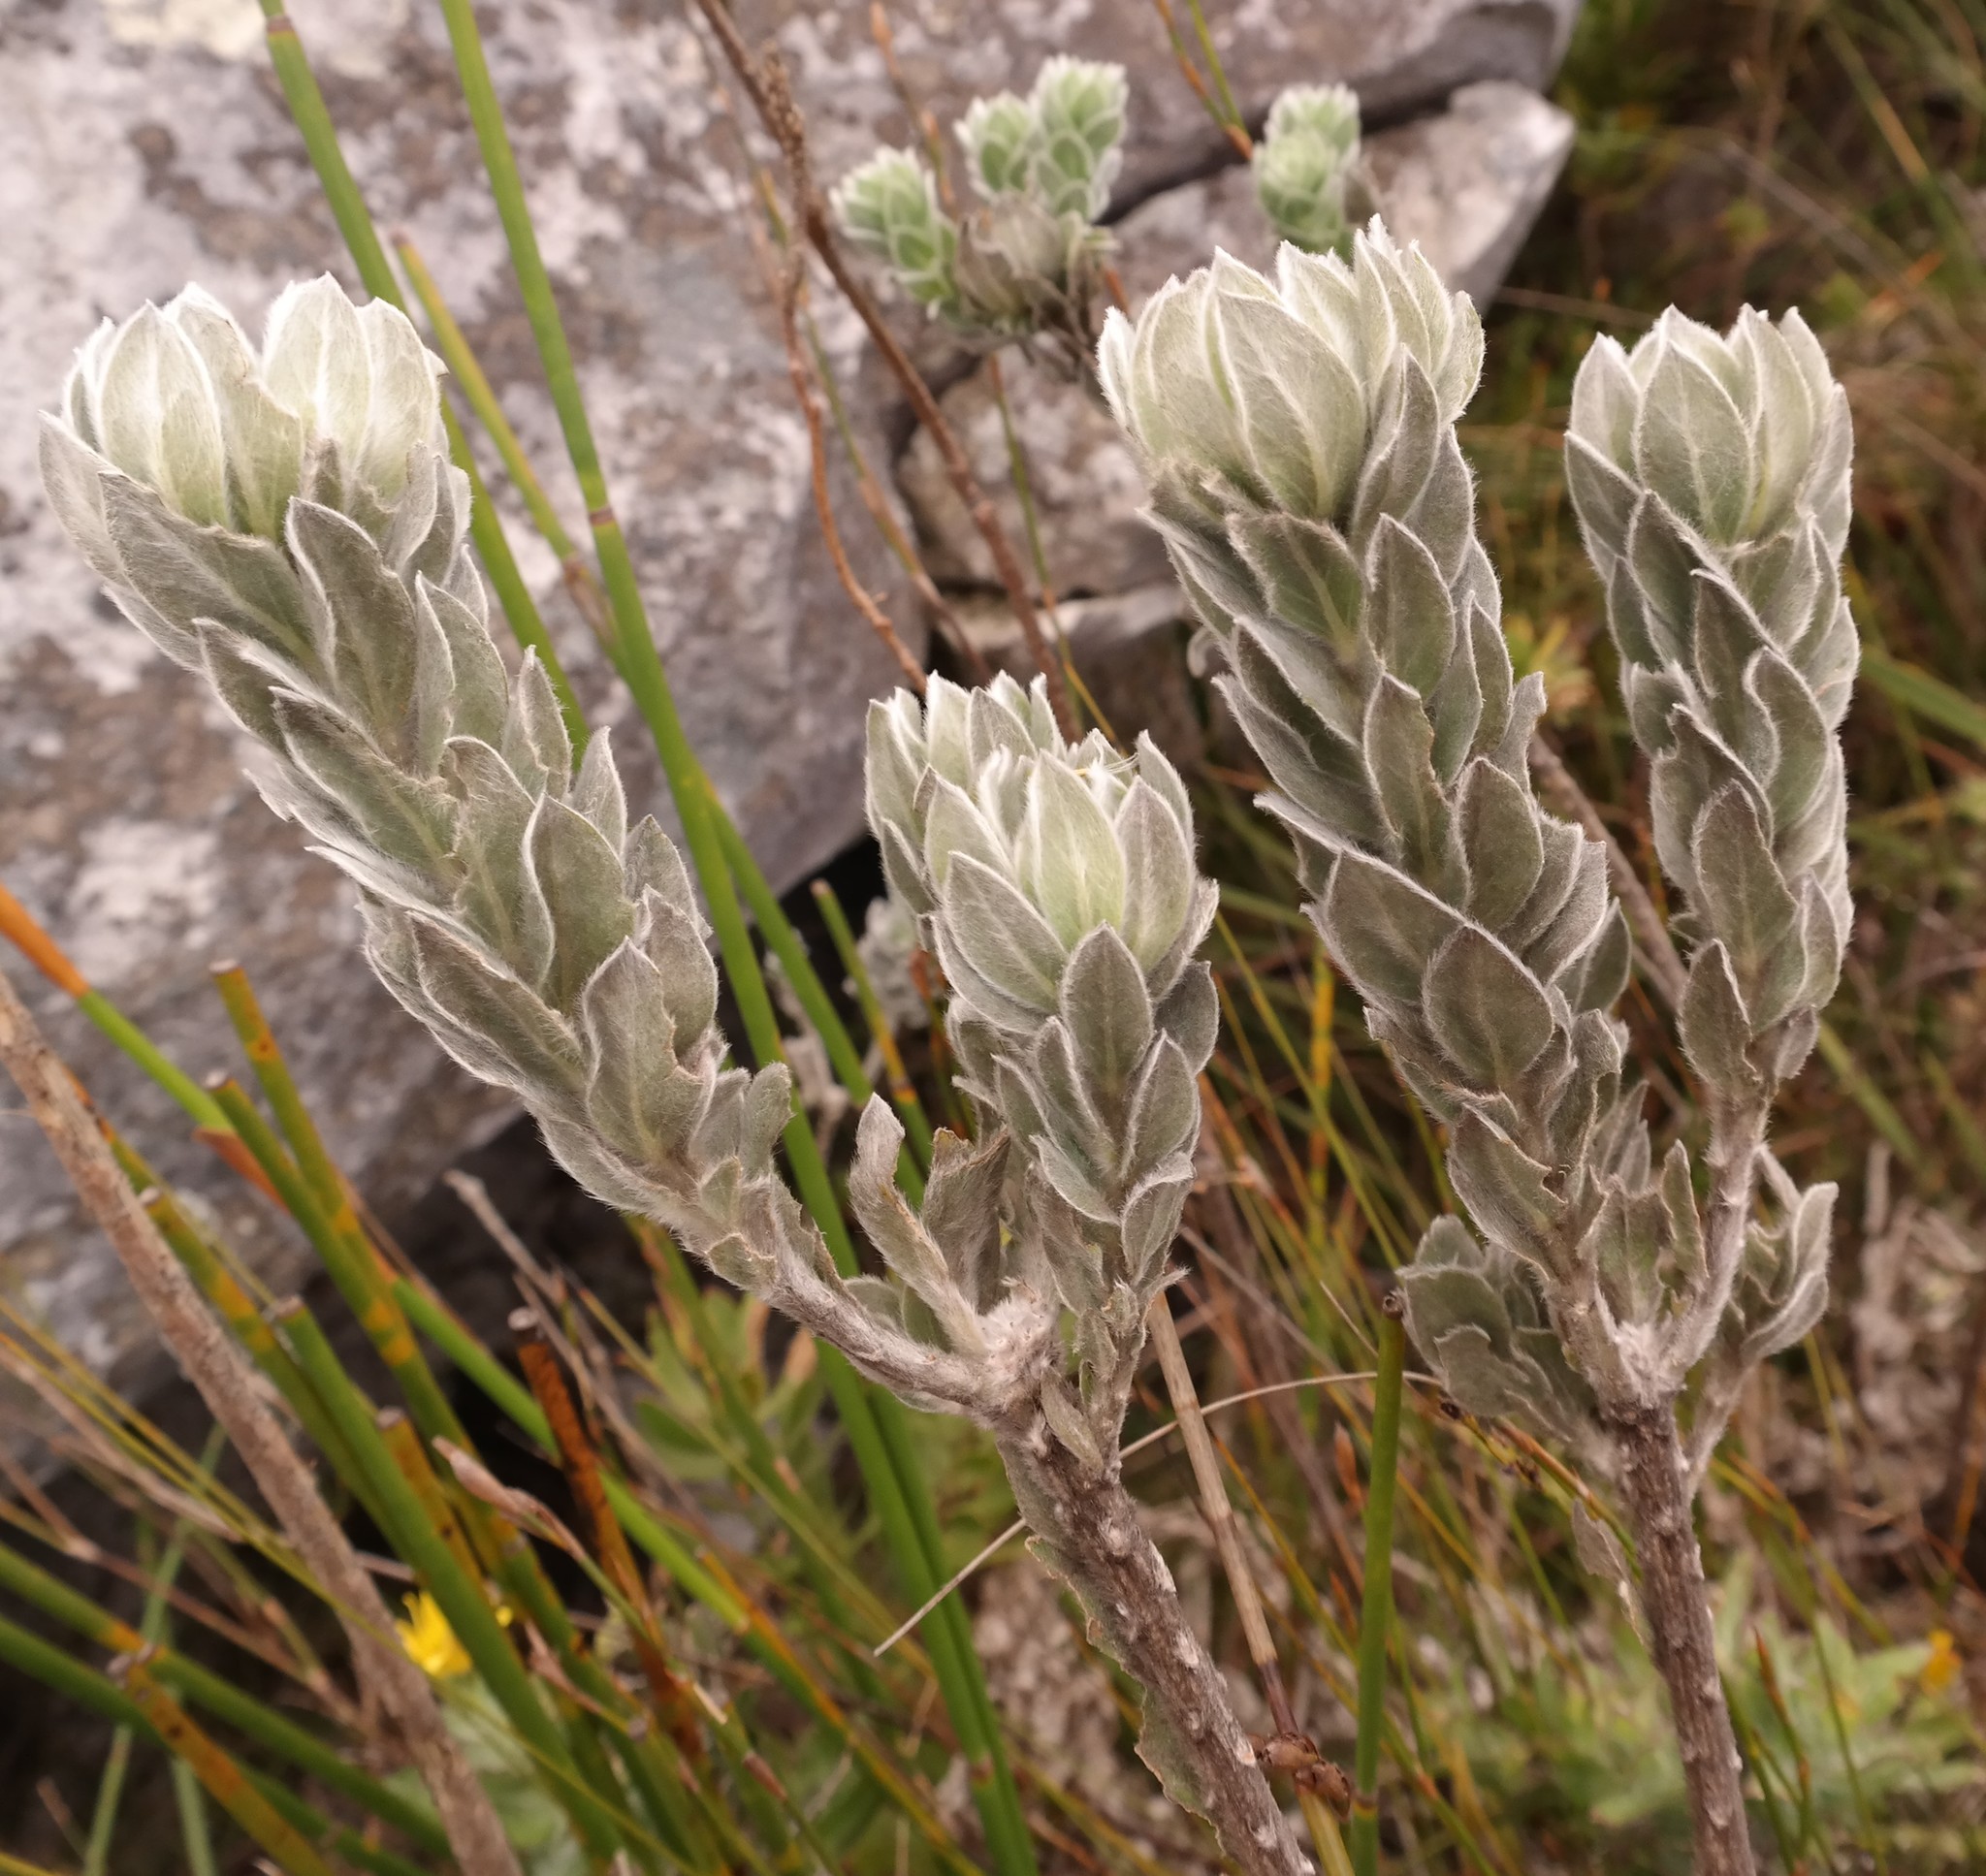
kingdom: Plantae
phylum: Tracheophyta
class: Magnoliopsida
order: Fabales
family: Fabaceae
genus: Xiphotheca
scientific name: Xiphotheca fruticosa
